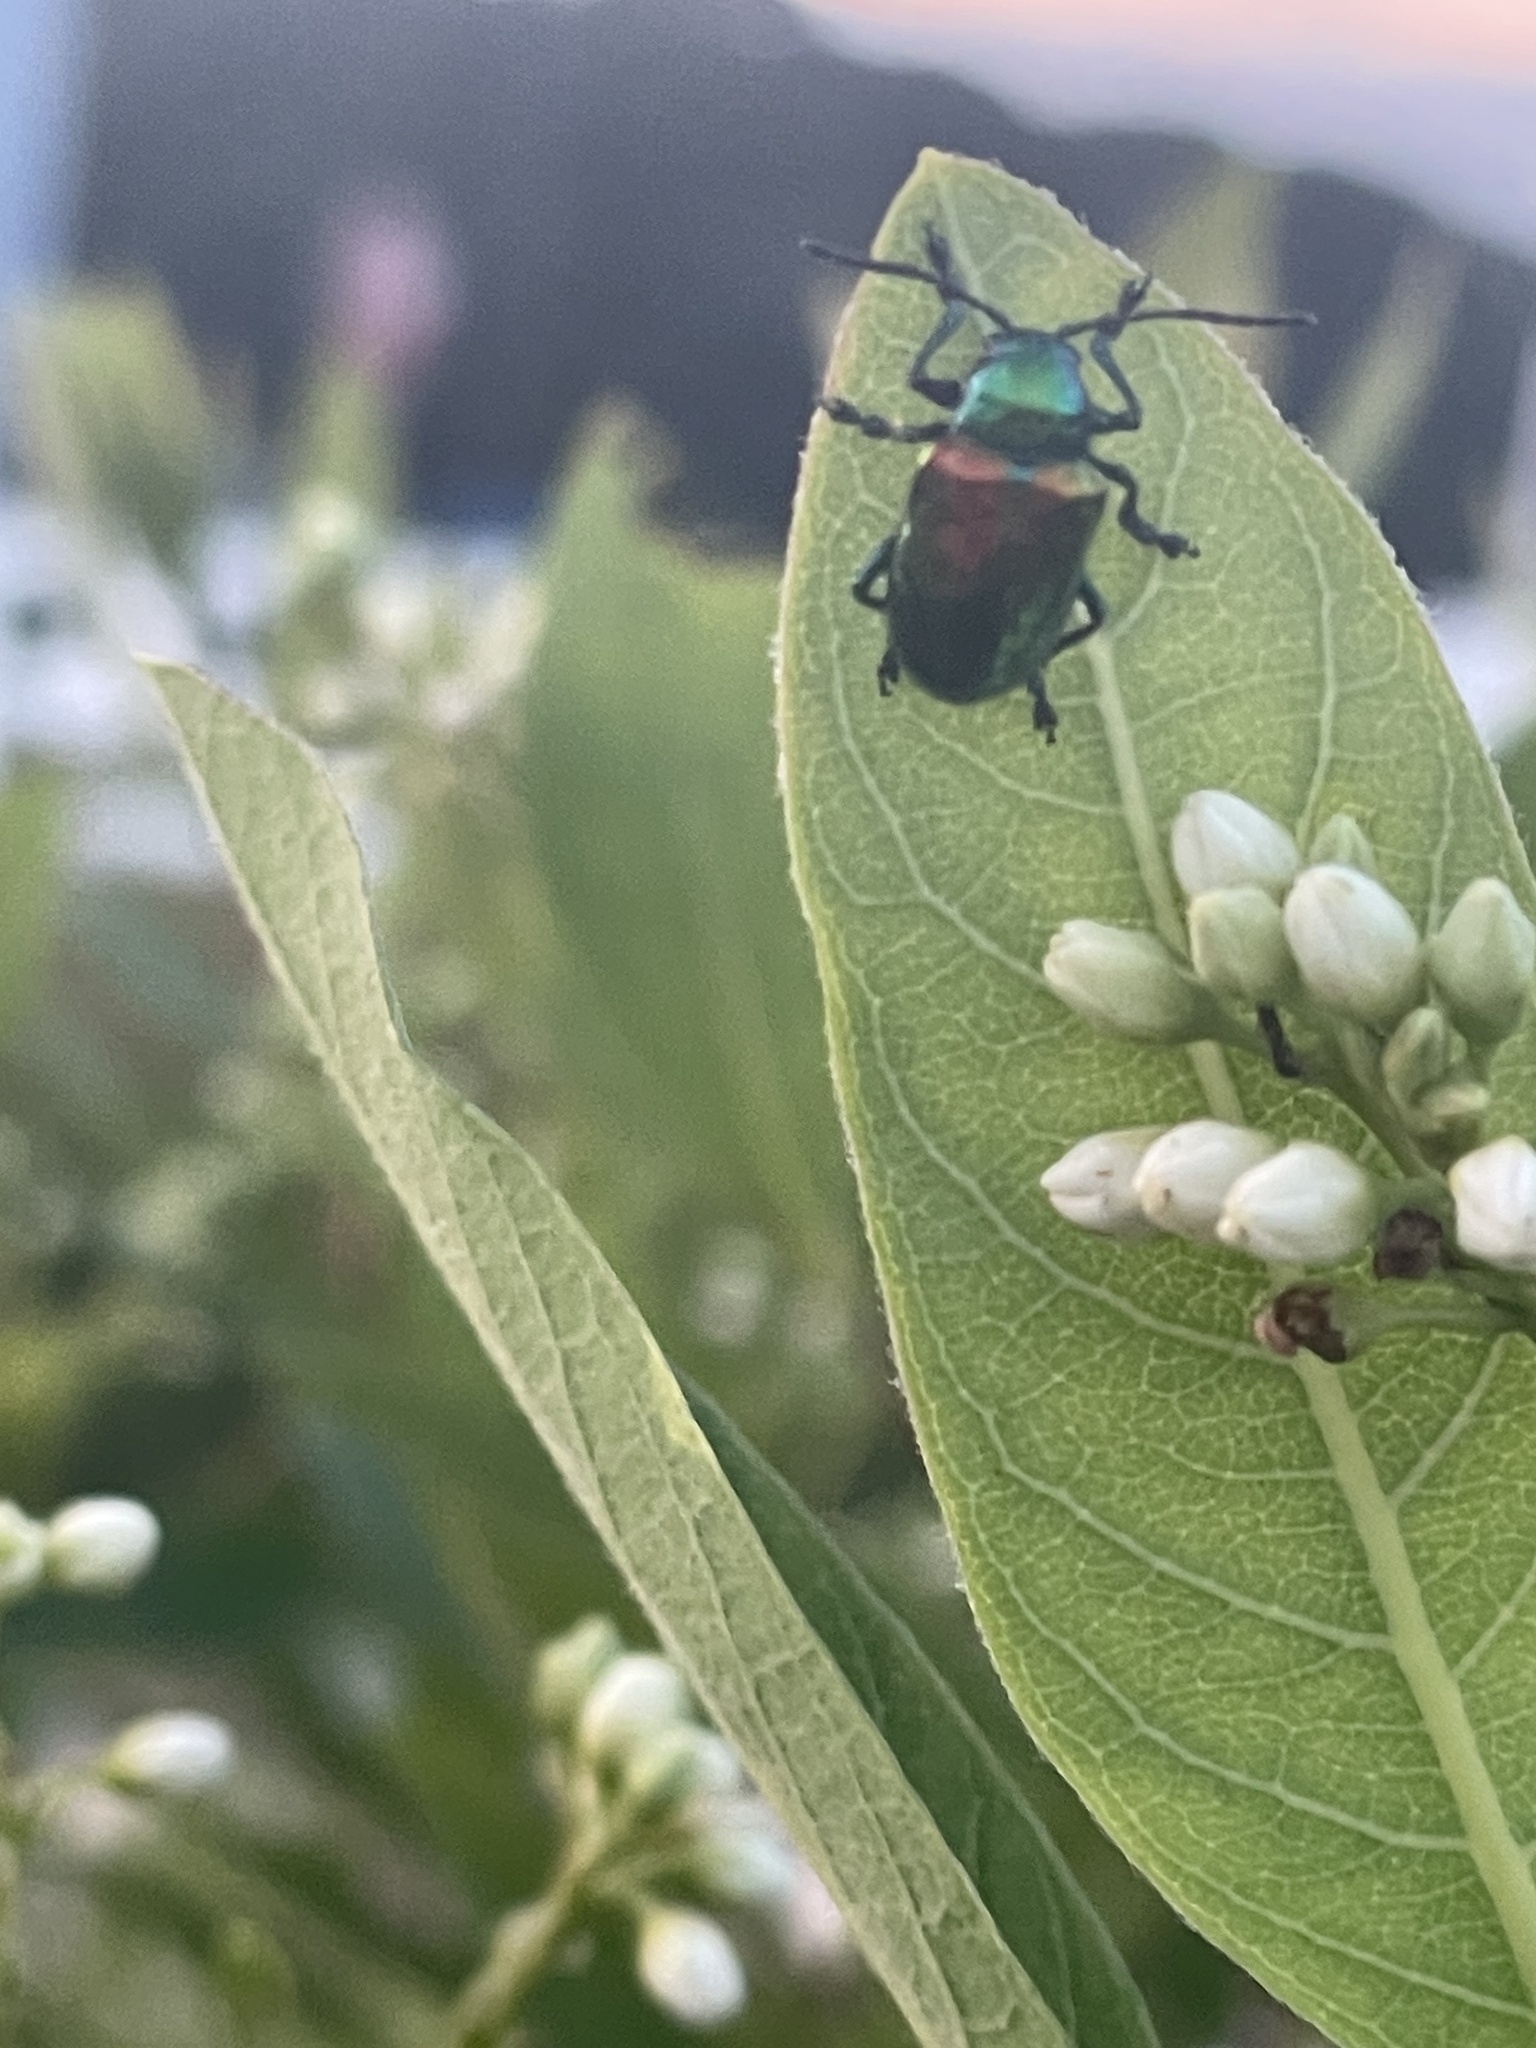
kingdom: Animalia
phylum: Arthropoda
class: Insecta
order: Coleoptera
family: Chrysomelidae
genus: Chrysochus
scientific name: Chrysochus auratus
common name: Dogbane leaf beetle
